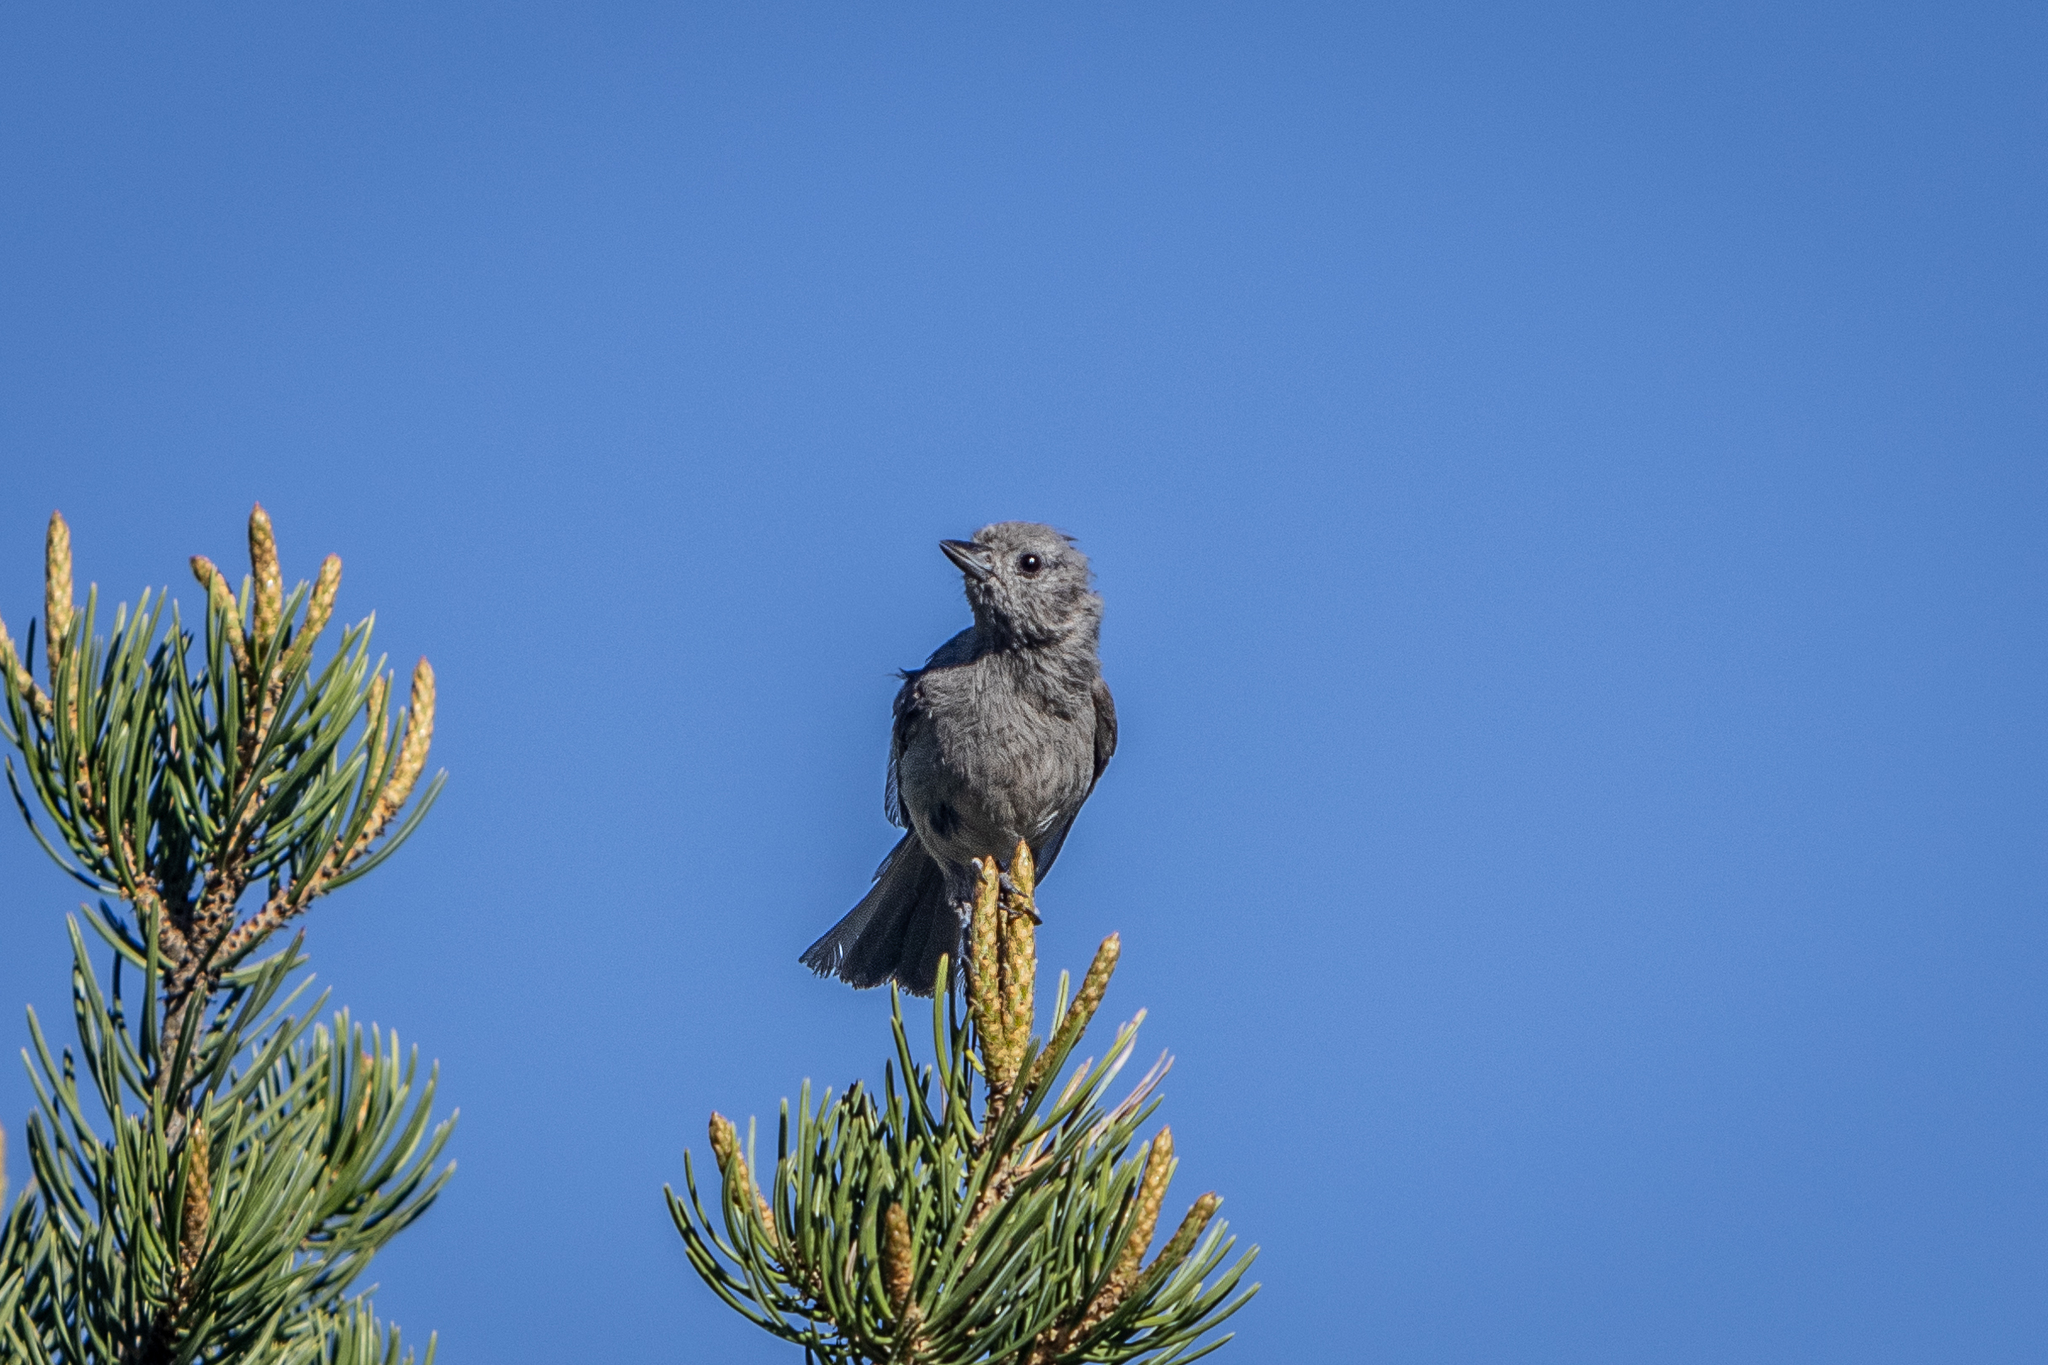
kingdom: Animalia
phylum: Chordata
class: Aves
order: Passeriformes
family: Paridae
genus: Baeolophus
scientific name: Baeolophus ridgwayi
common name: Juniper titmouse
